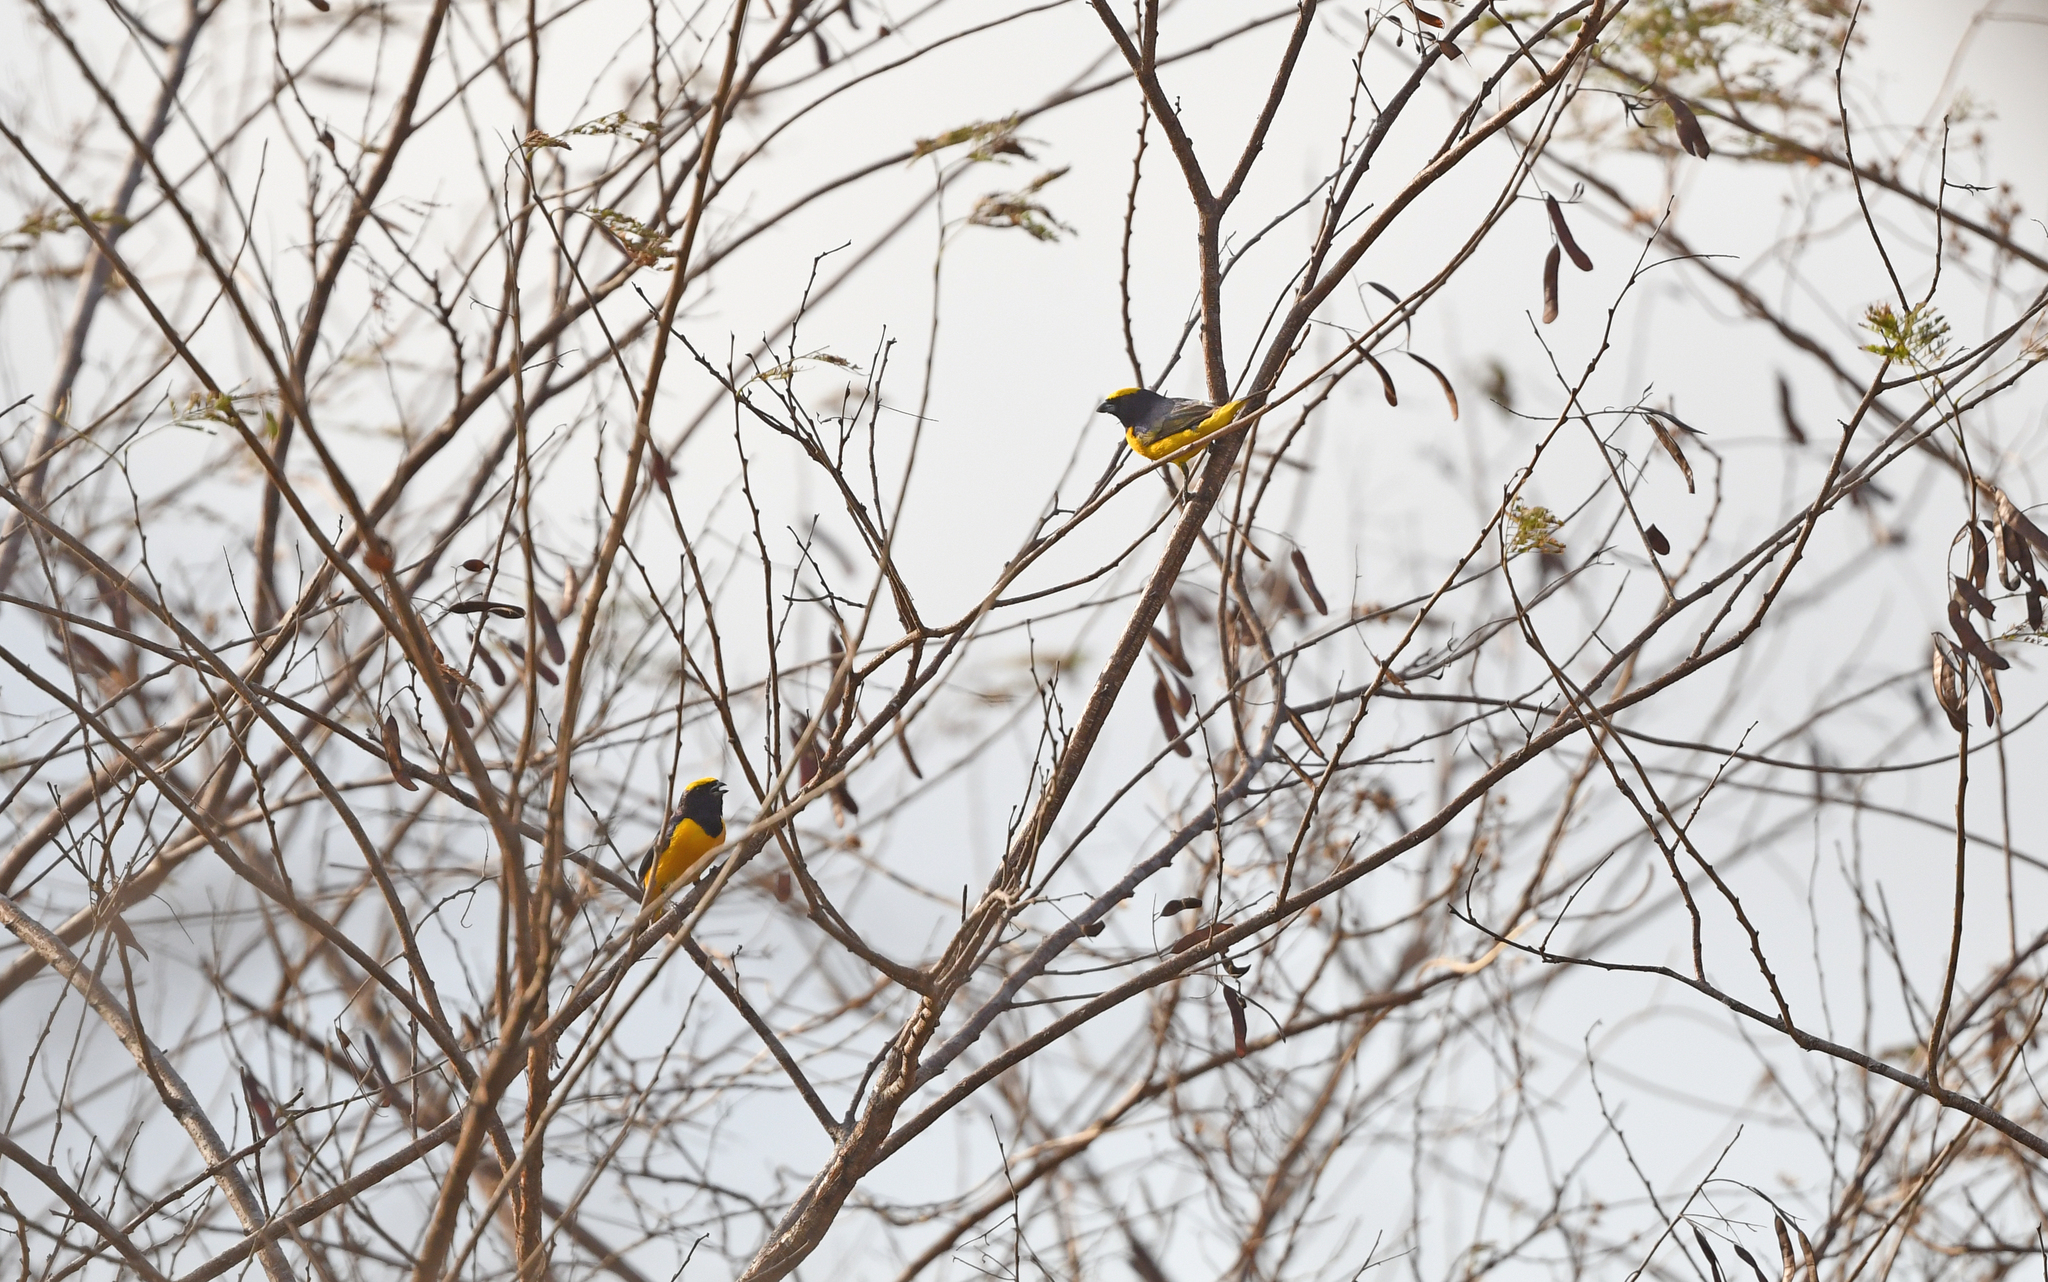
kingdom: Animalia
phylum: Chordata
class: Aves
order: Passeriformes
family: Fringillidae
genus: Euphonia
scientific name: Euphonia trinitatis
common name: Trinidad euphonia
